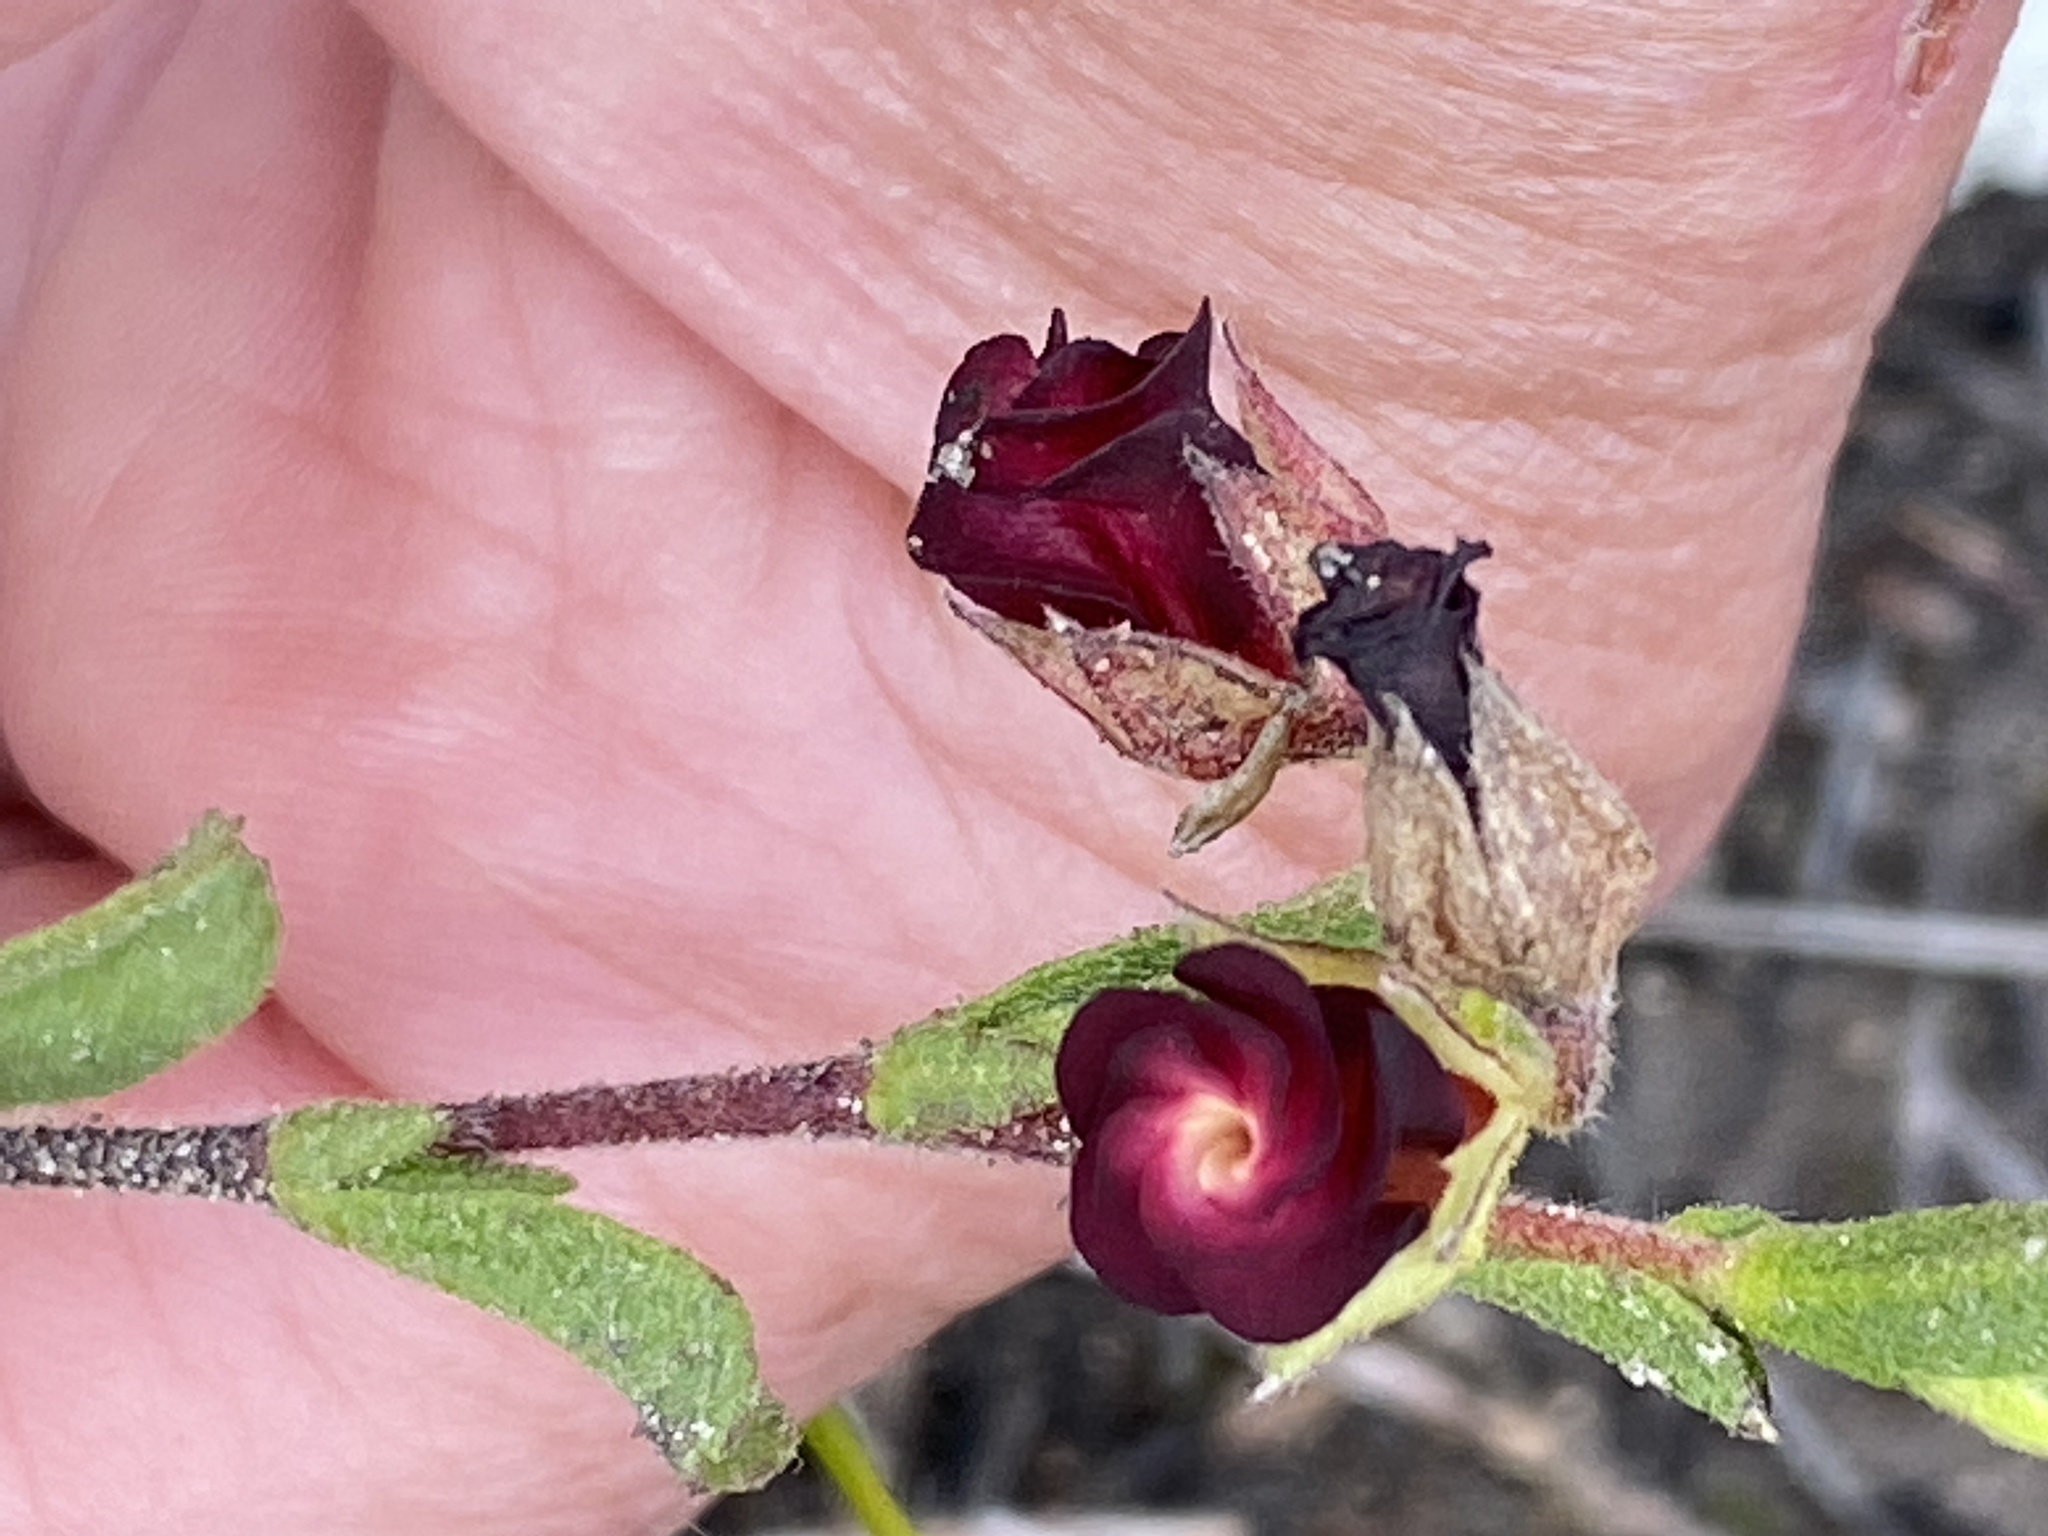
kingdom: Plantae
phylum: Tracheophyta
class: Magnoliopsida
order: Malvales
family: Malvaceae
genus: Hermannia
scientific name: Hermannia flammula
